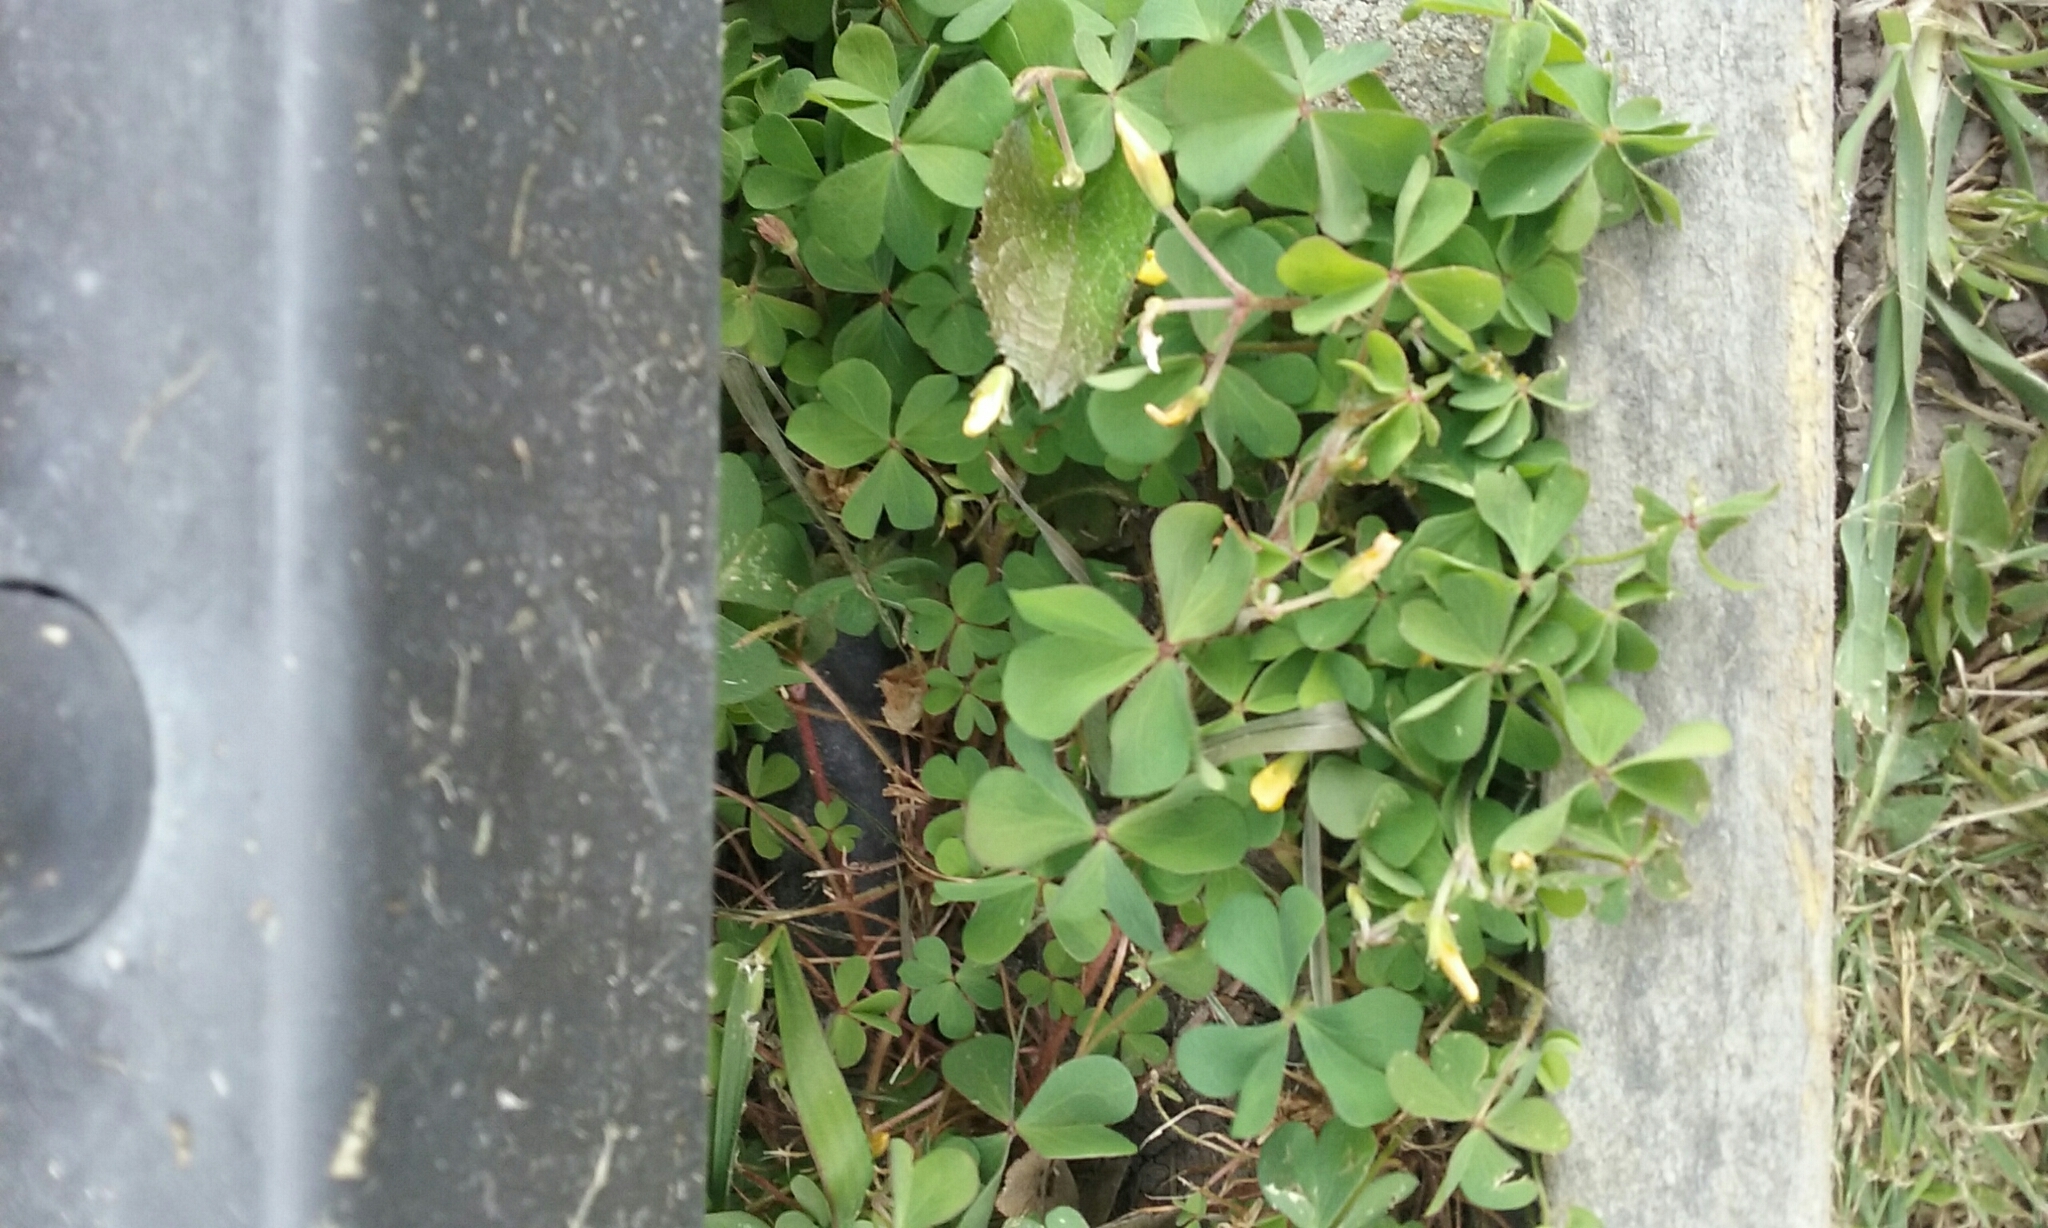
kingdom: Plantae
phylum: Tracheophyta
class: Magnoliopsida
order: Oxalidales
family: Oxalidaceae
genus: Oxalis
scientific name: Oxalis corniculata
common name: Procumbent yellow-sorrel
